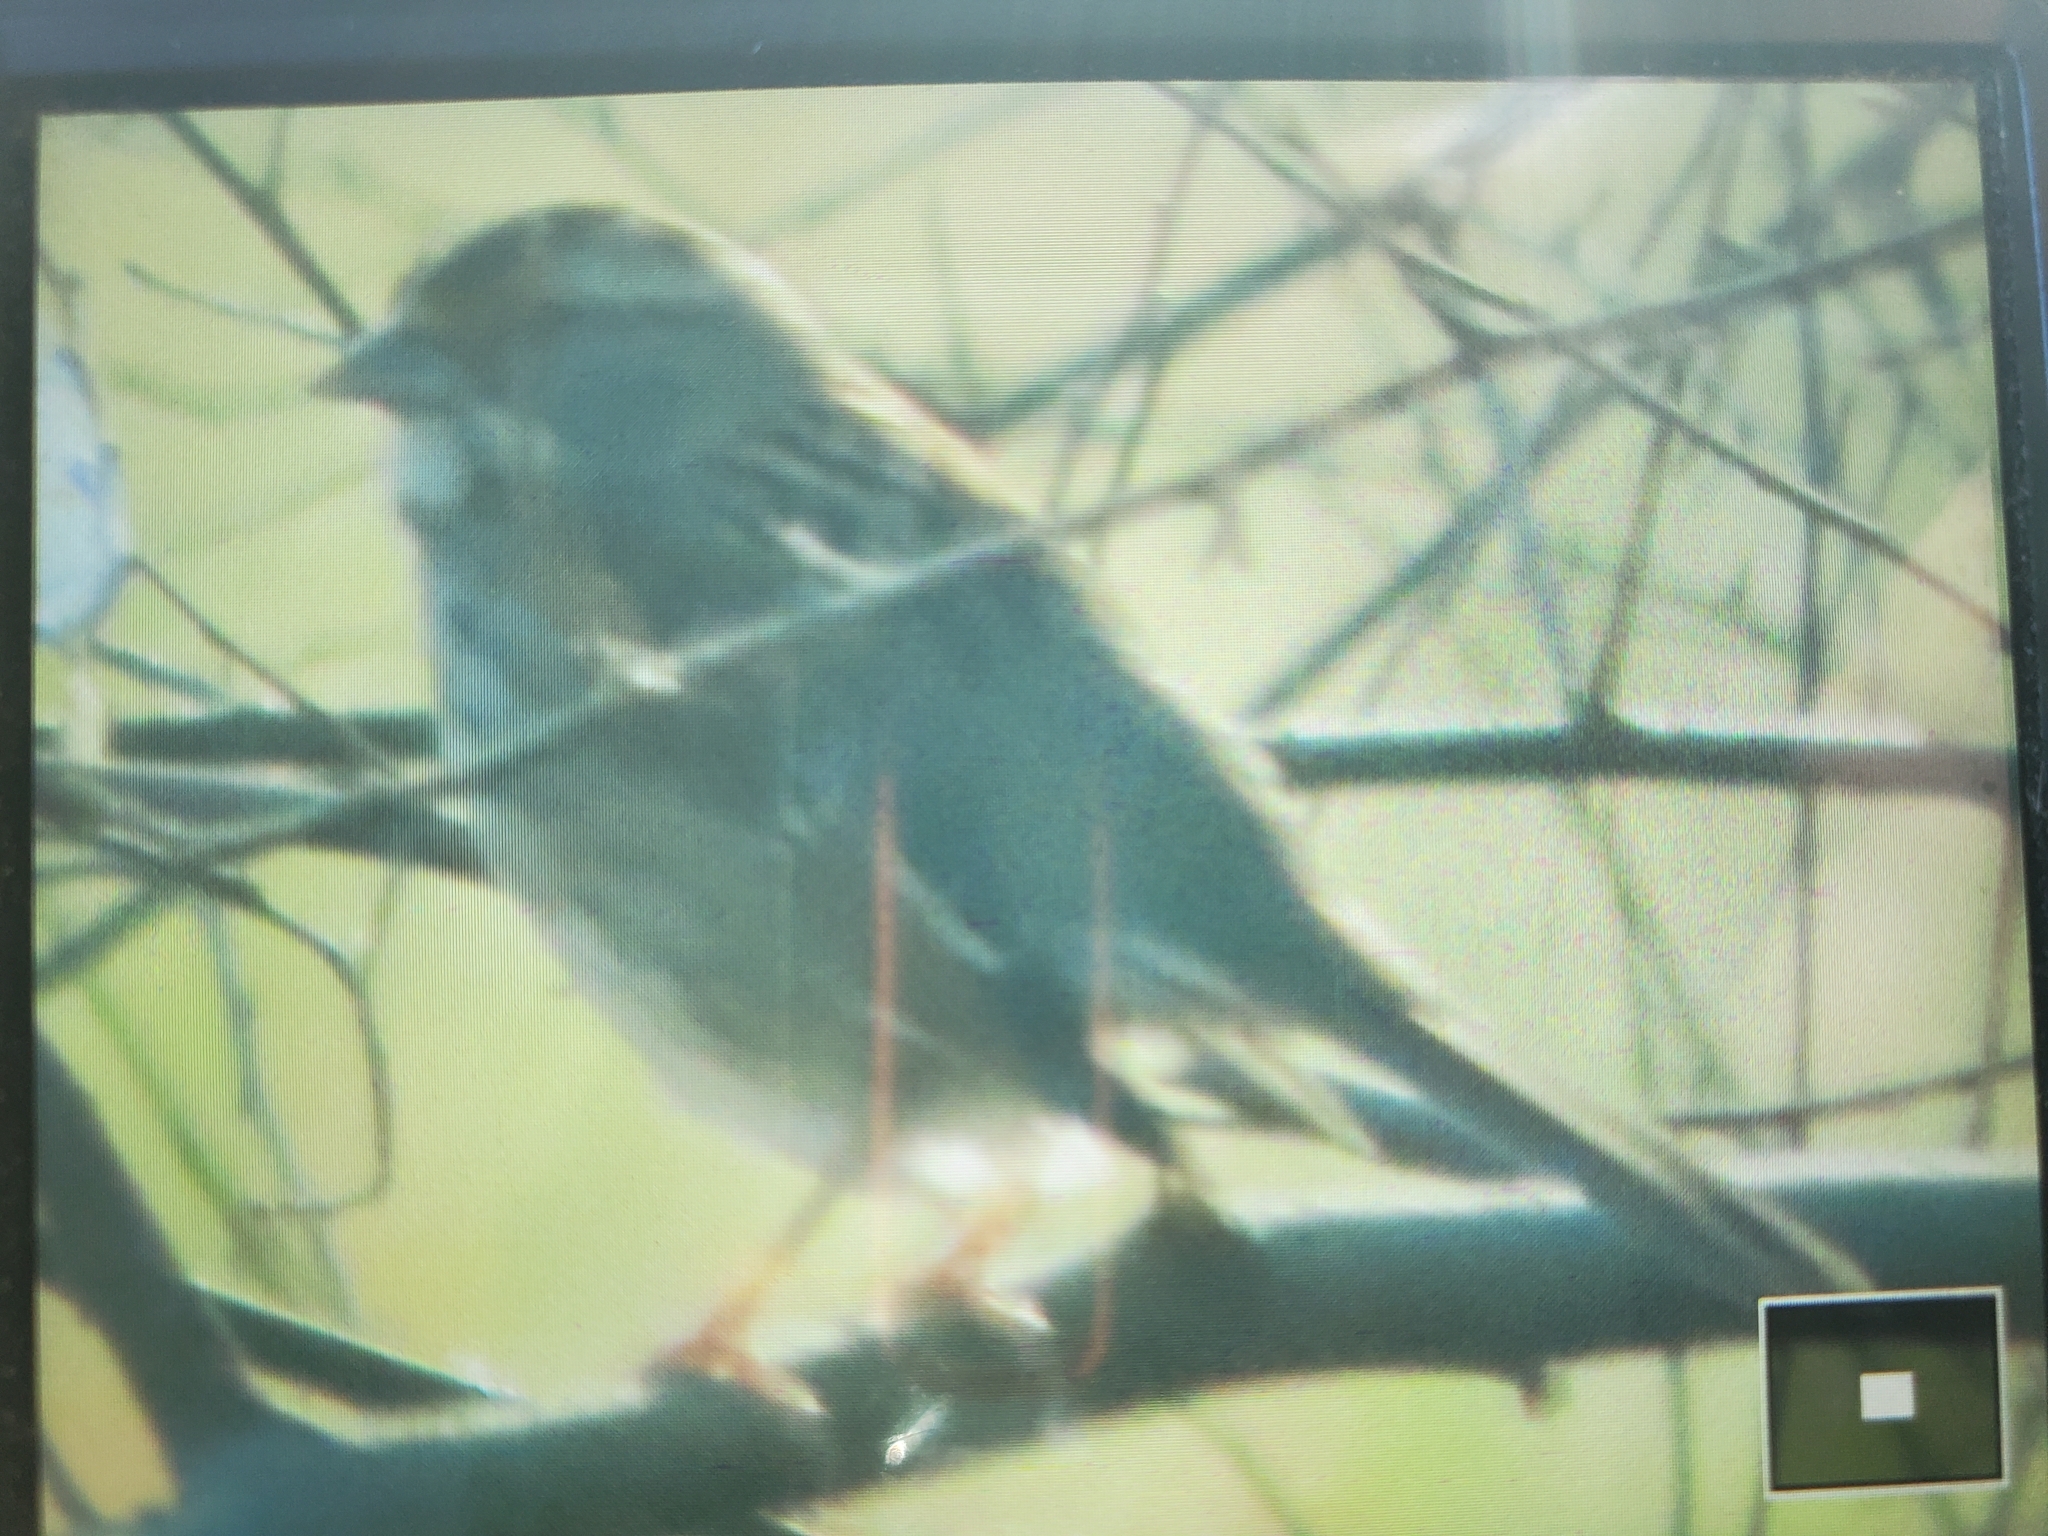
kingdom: Animalia
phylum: Chordata
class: Aves
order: Passeriformes
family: Passerellidae
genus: Zonotrichia
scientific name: Zonotrichia albicollis
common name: White-throated sparrow
